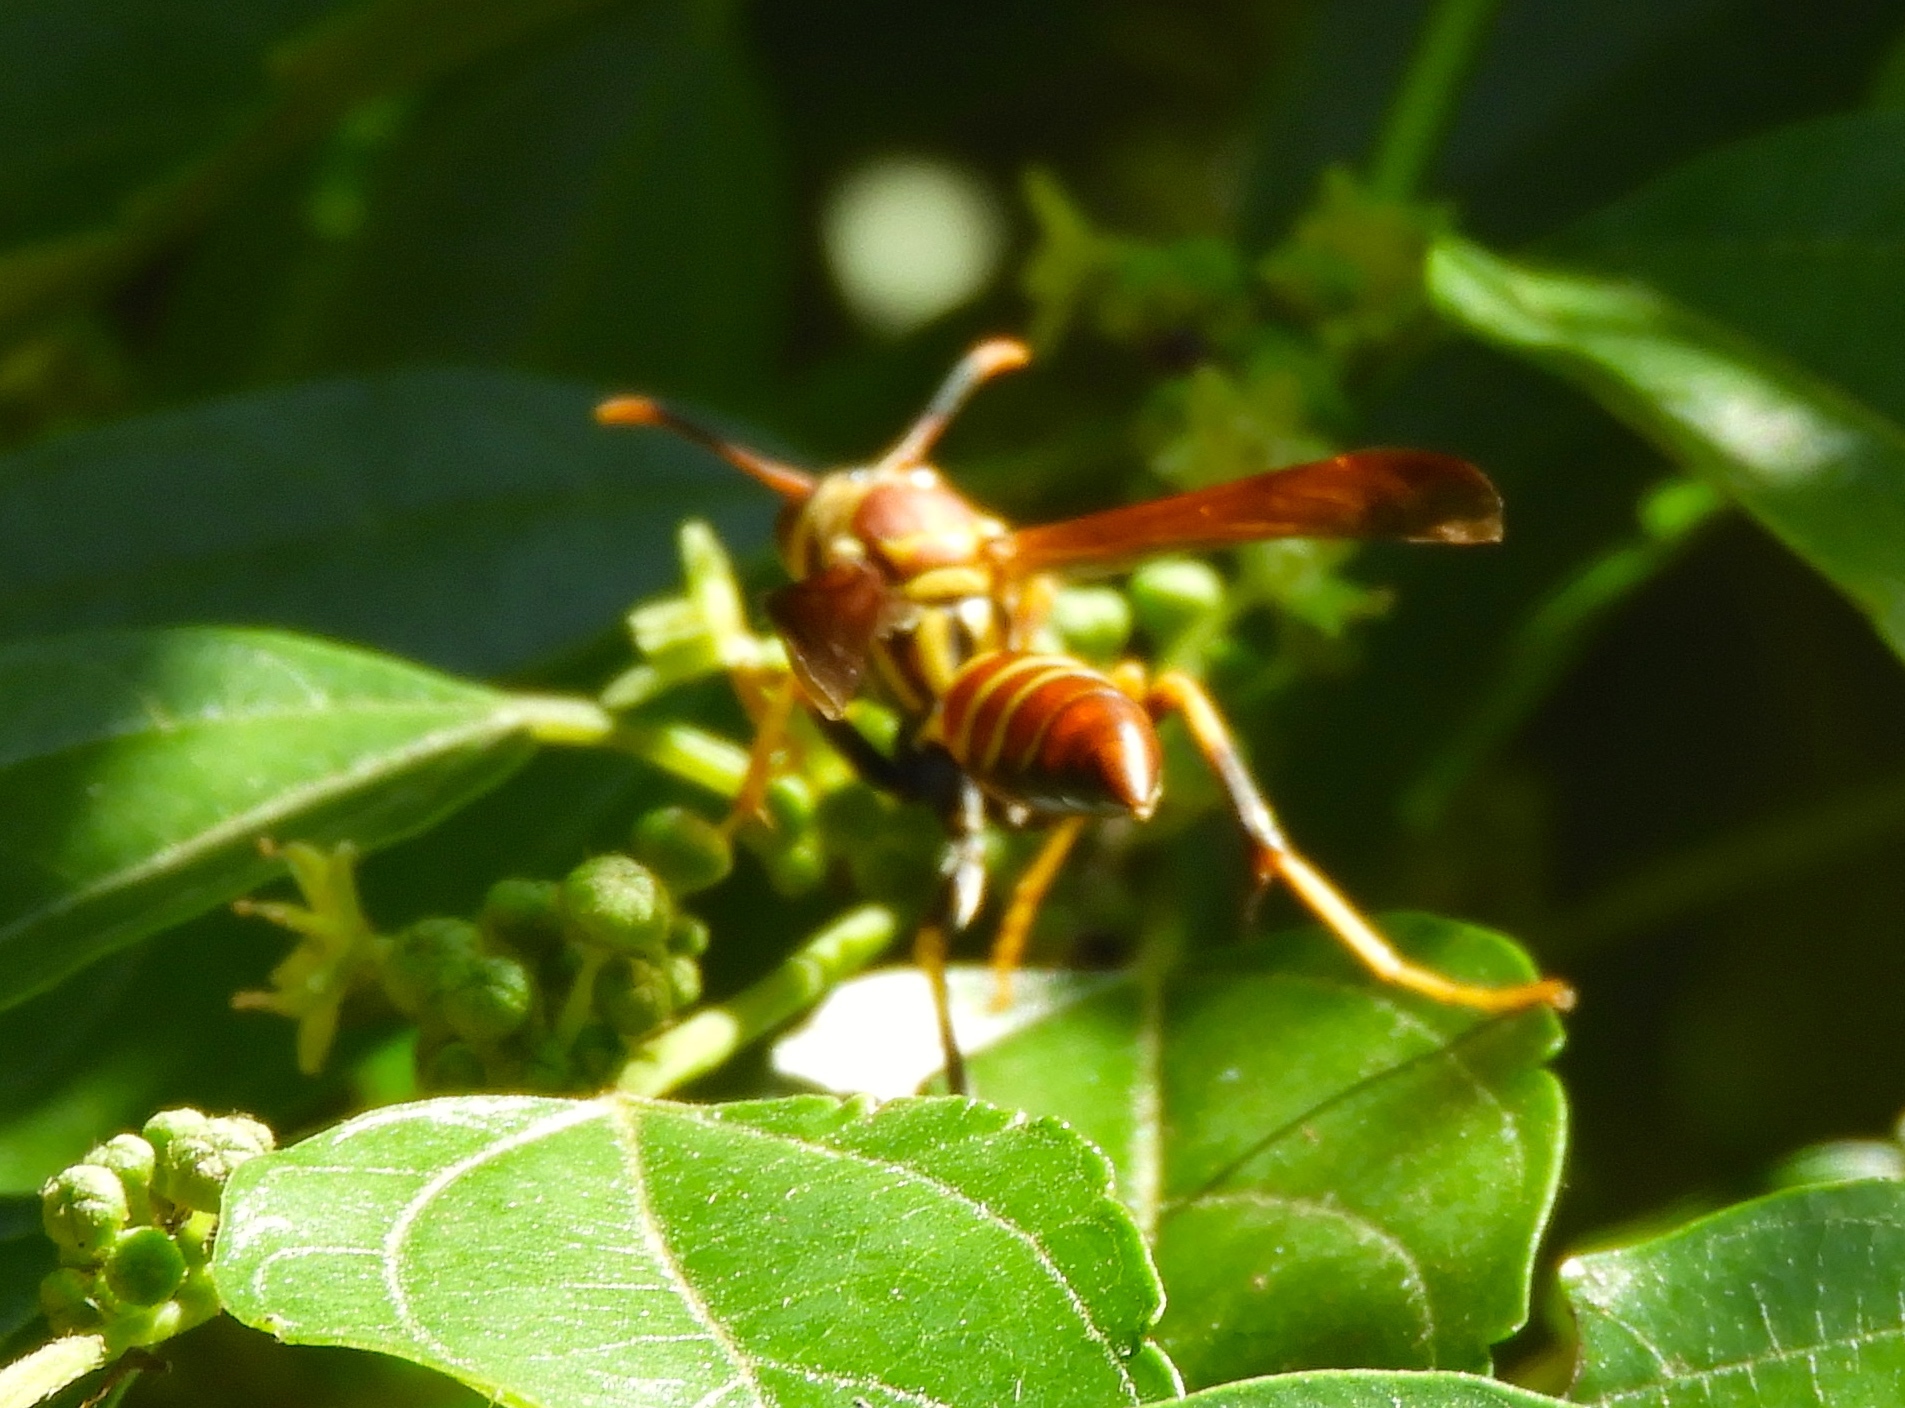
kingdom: Animalia
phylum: Arthropoda
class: Insecta
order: Hymenoptera
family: Eumenidae
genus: Polistes
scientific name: Polistes instabilis
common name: Unstable paper wasp
